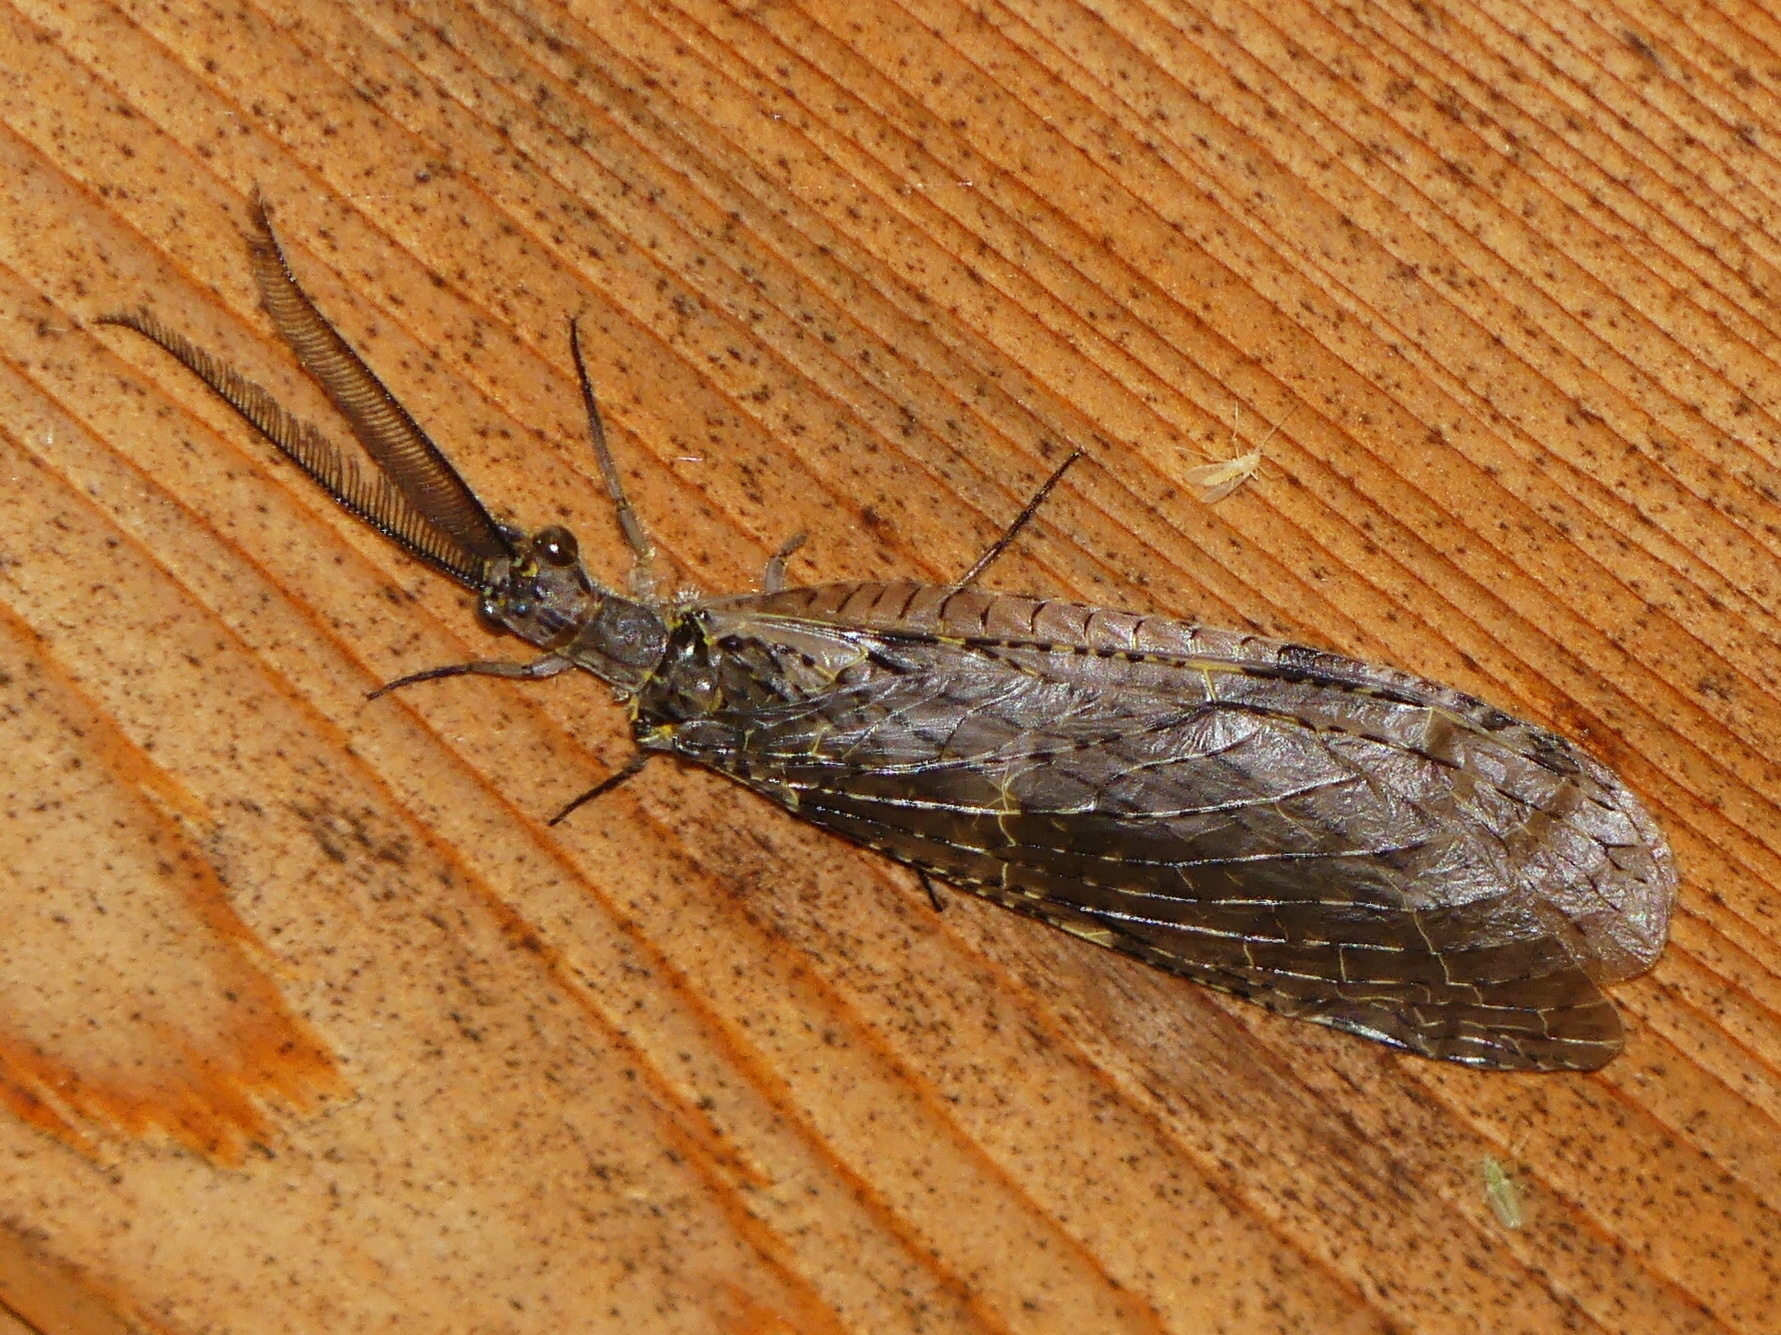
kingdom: Animalia
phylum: Arthropoda
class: Insecta
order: Megaloptera
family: Corydalidae
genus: Chauliodes
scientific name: Chauliodes rastricornis
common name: Spring fishfly
